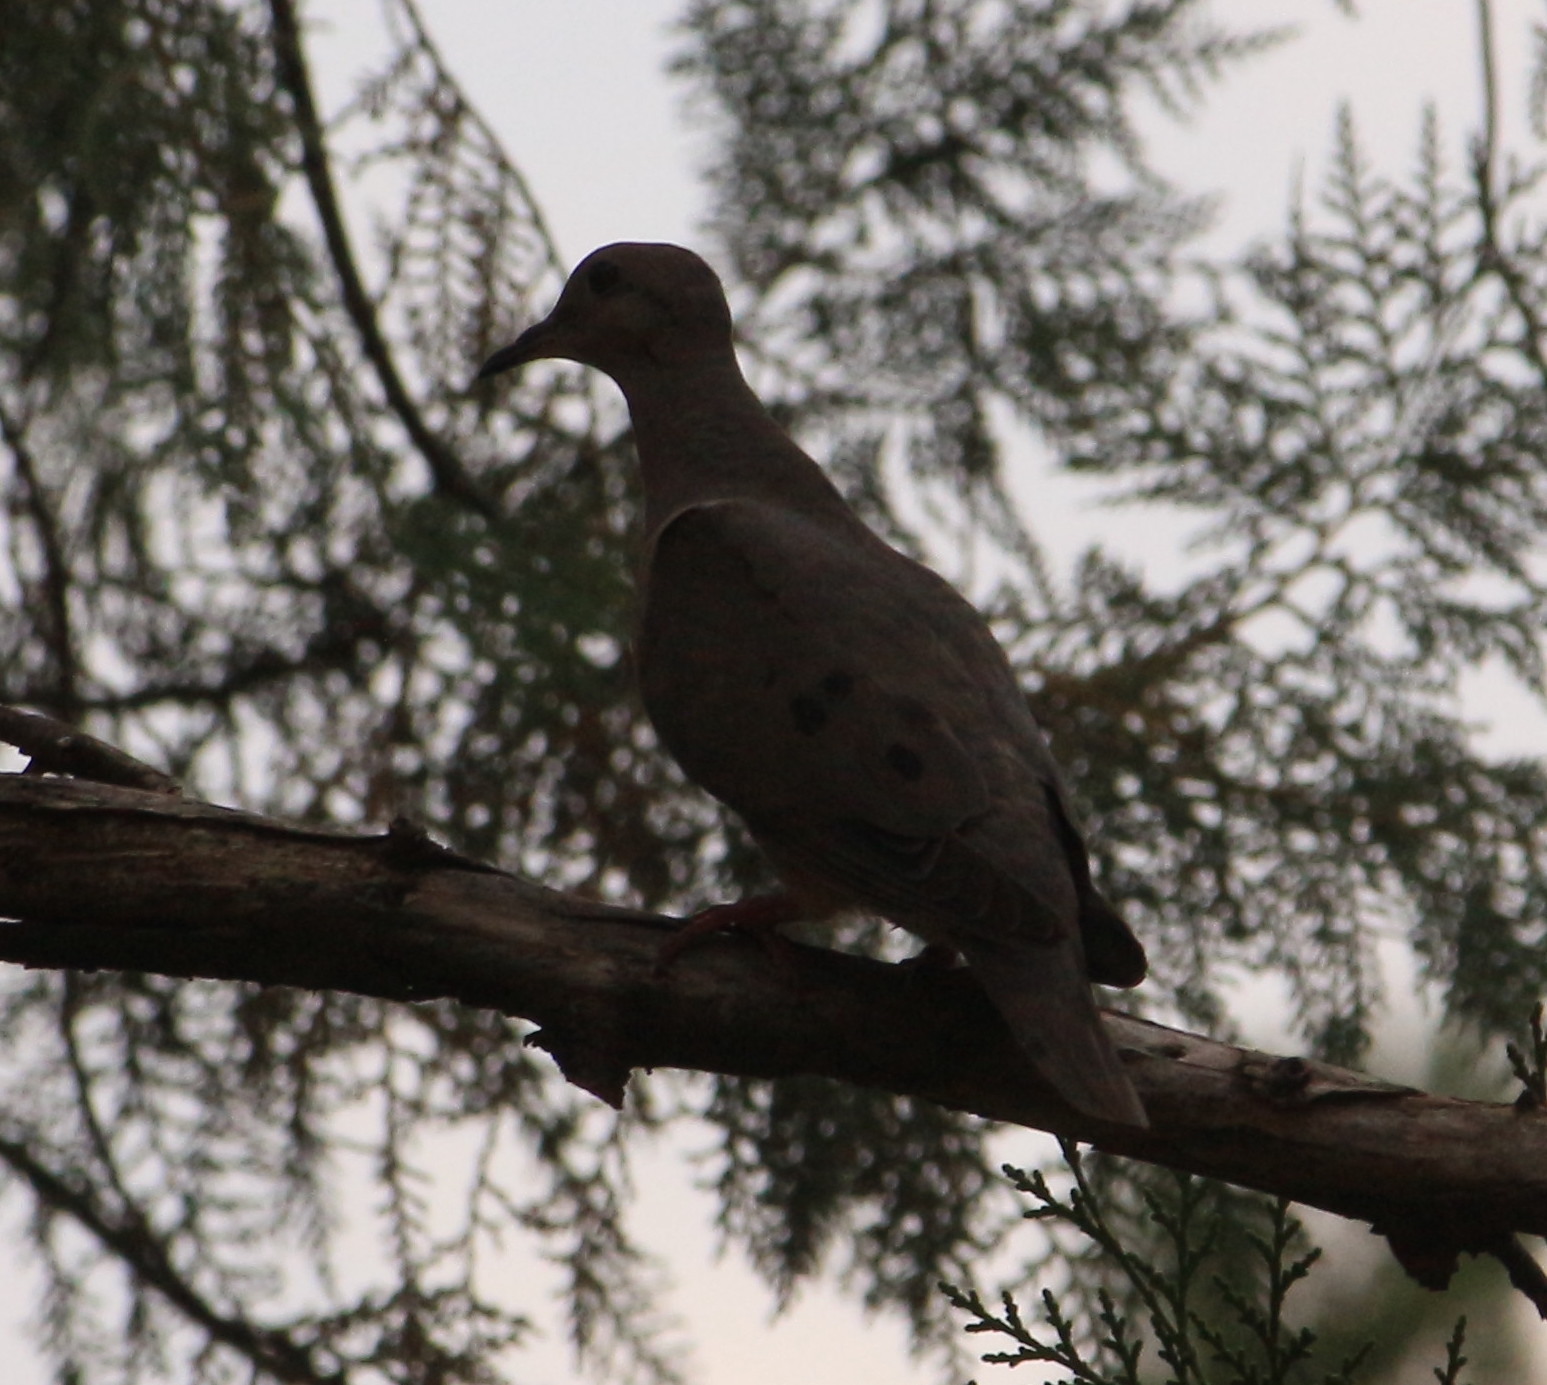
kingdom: Animalia
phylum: Chordata
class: Aves
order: Columbiformes
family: Columbidae
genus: Zenaida
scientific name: Zenaida auriculata
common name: Eared dove
